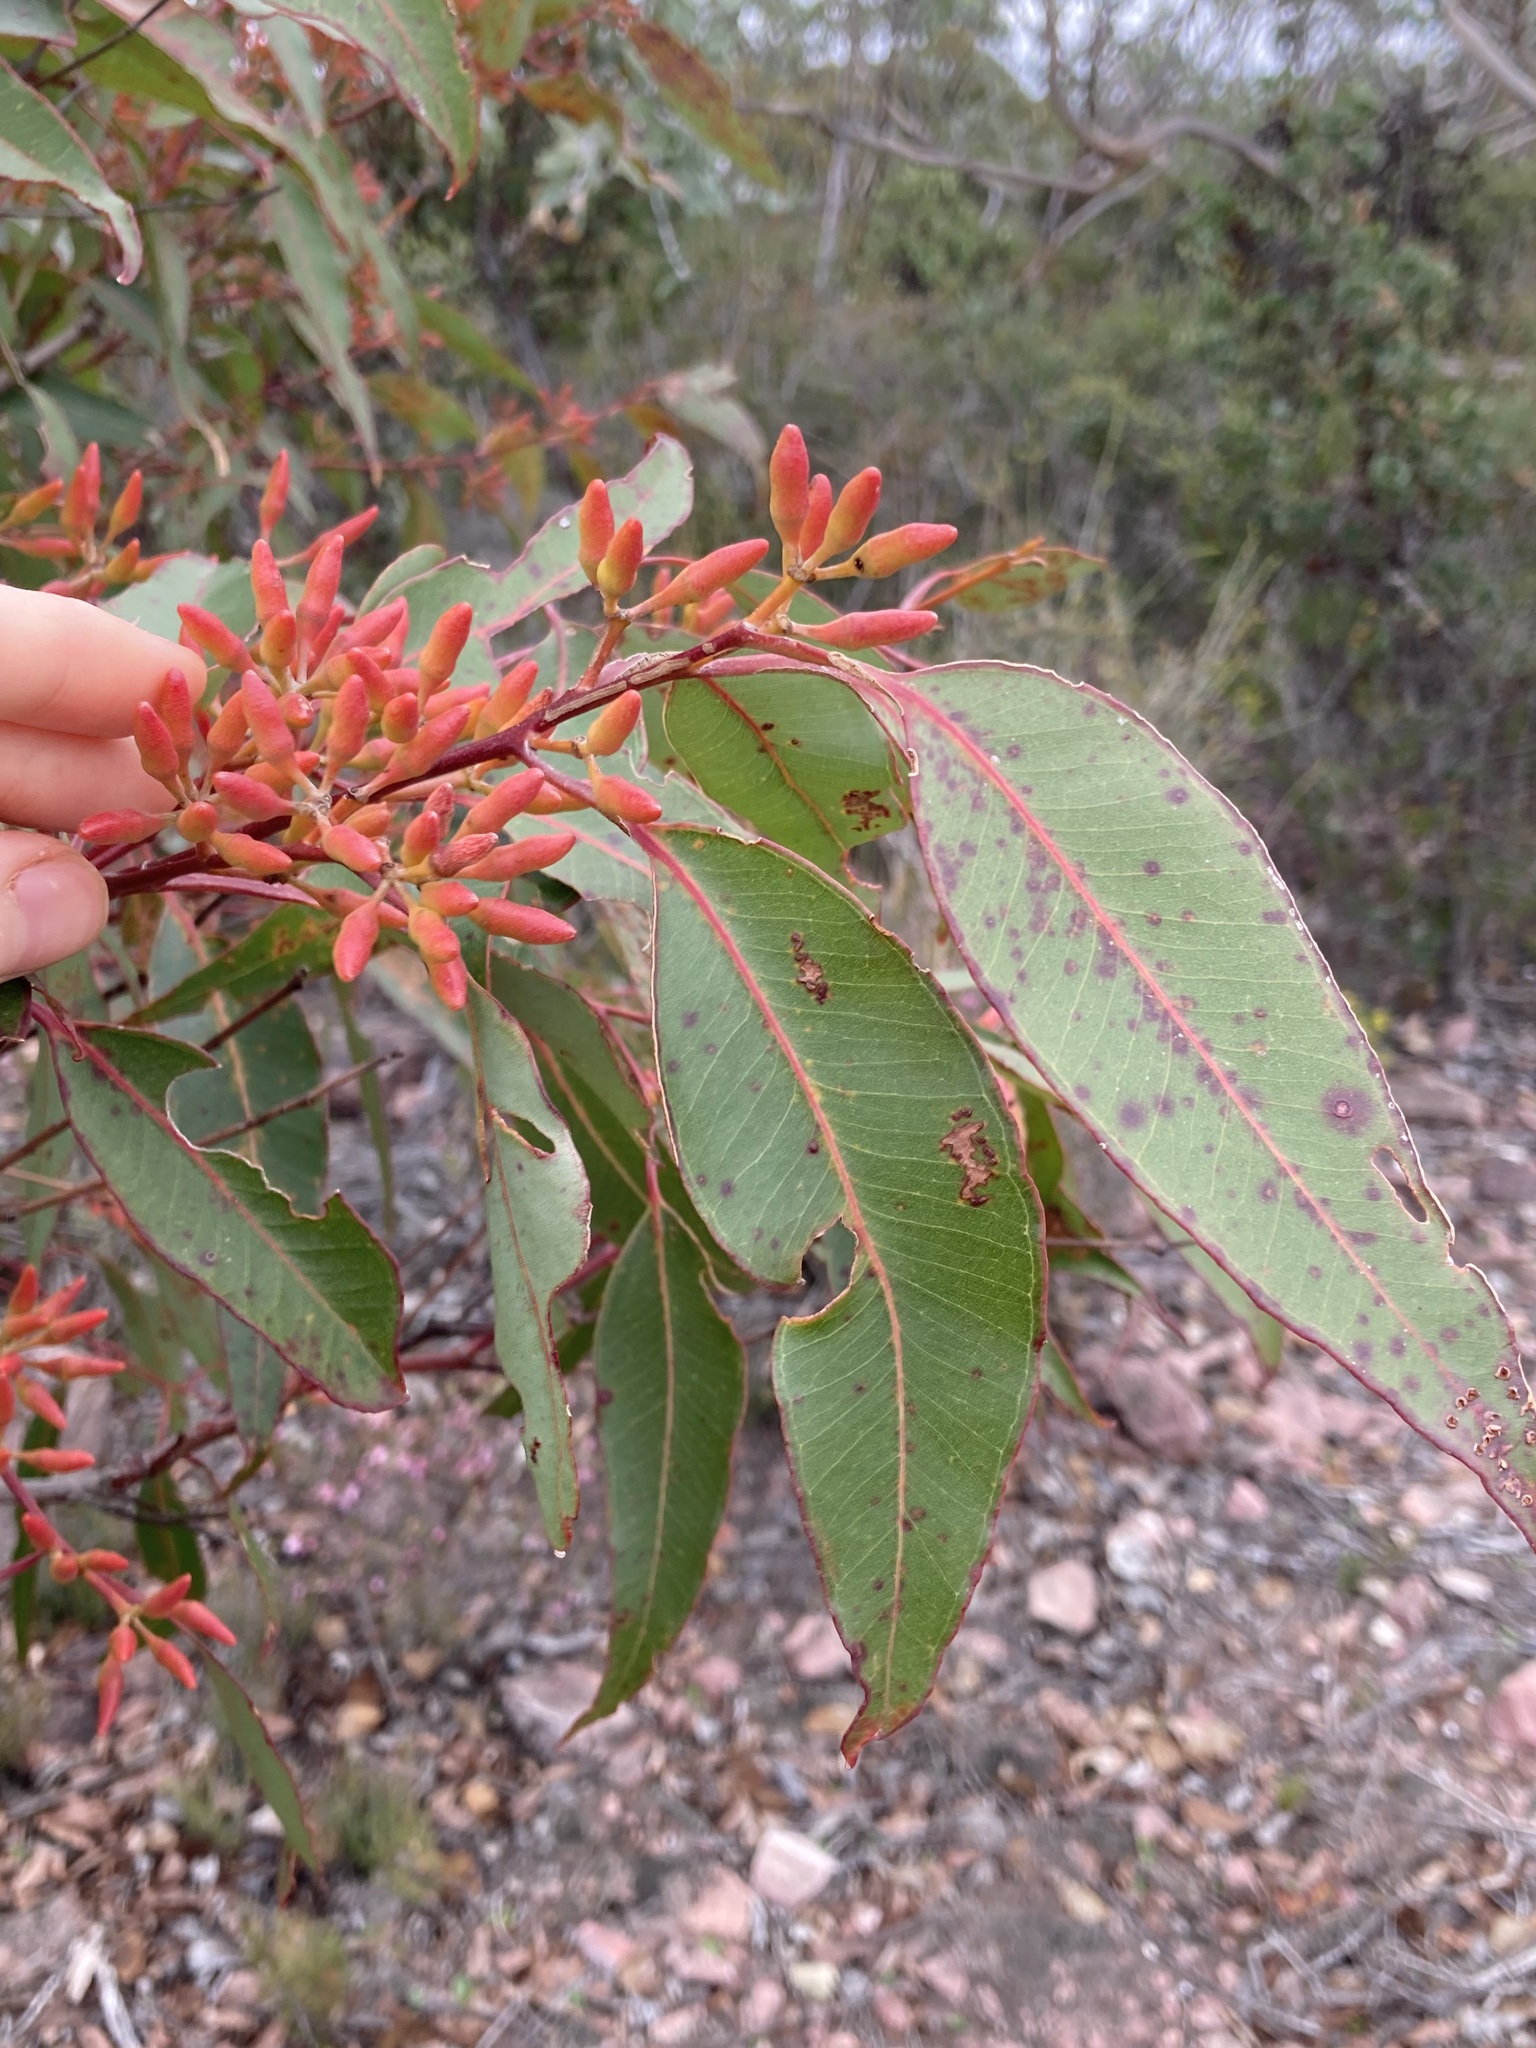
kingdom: Plantae
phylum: Tracheophyta
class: Magnoliopsida
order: Myrtales
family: Myrtaceae
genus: Eucalyptus
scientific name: Eucalyptus marginata
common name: Jarrah
